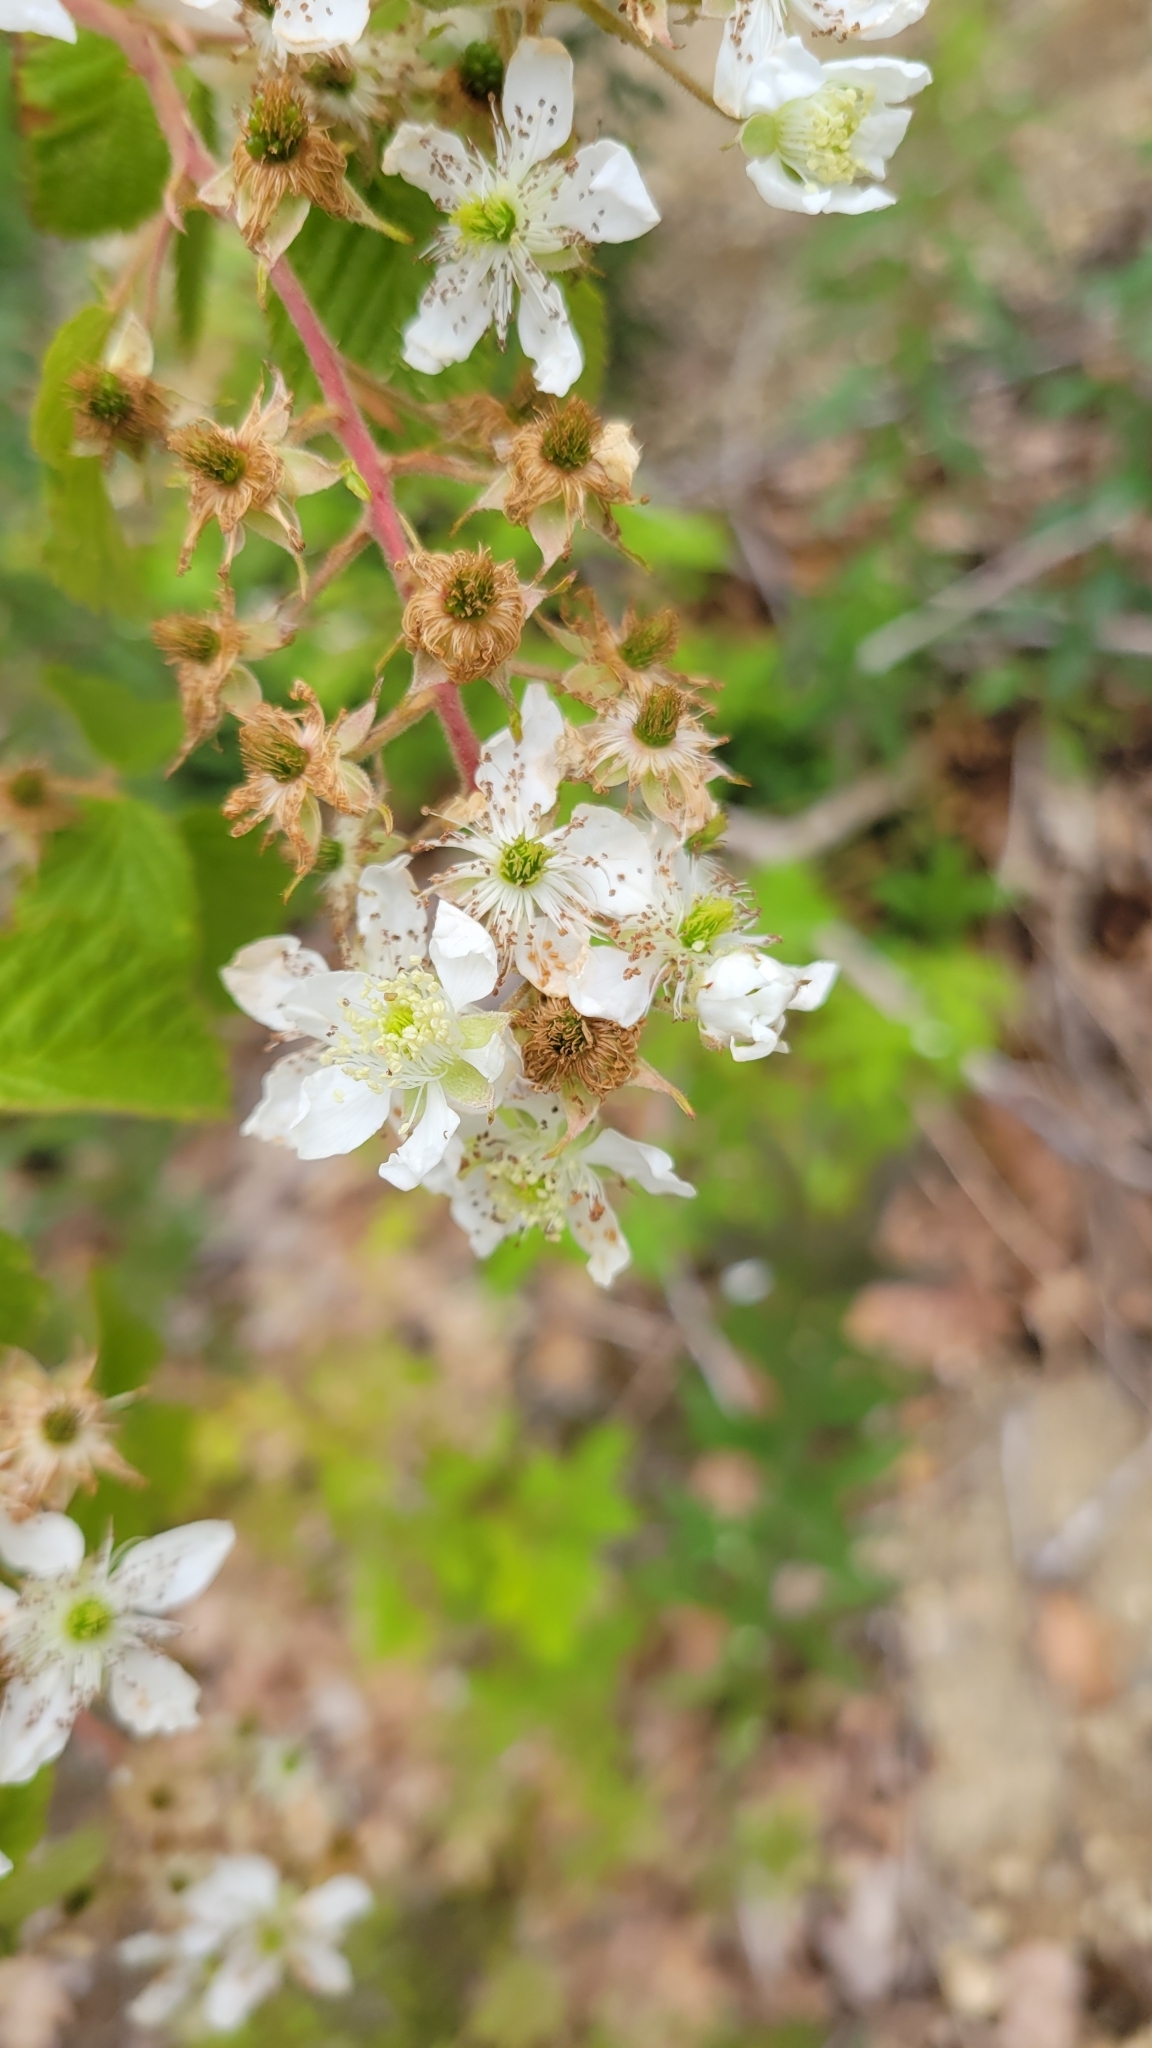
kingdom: Plantae
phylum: Tracheophyta
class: Magnoliopsida
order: Rosales
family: Rosaceae
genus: Rubus
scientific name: Rubus allegheniensis
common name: Allegheny blackberry
